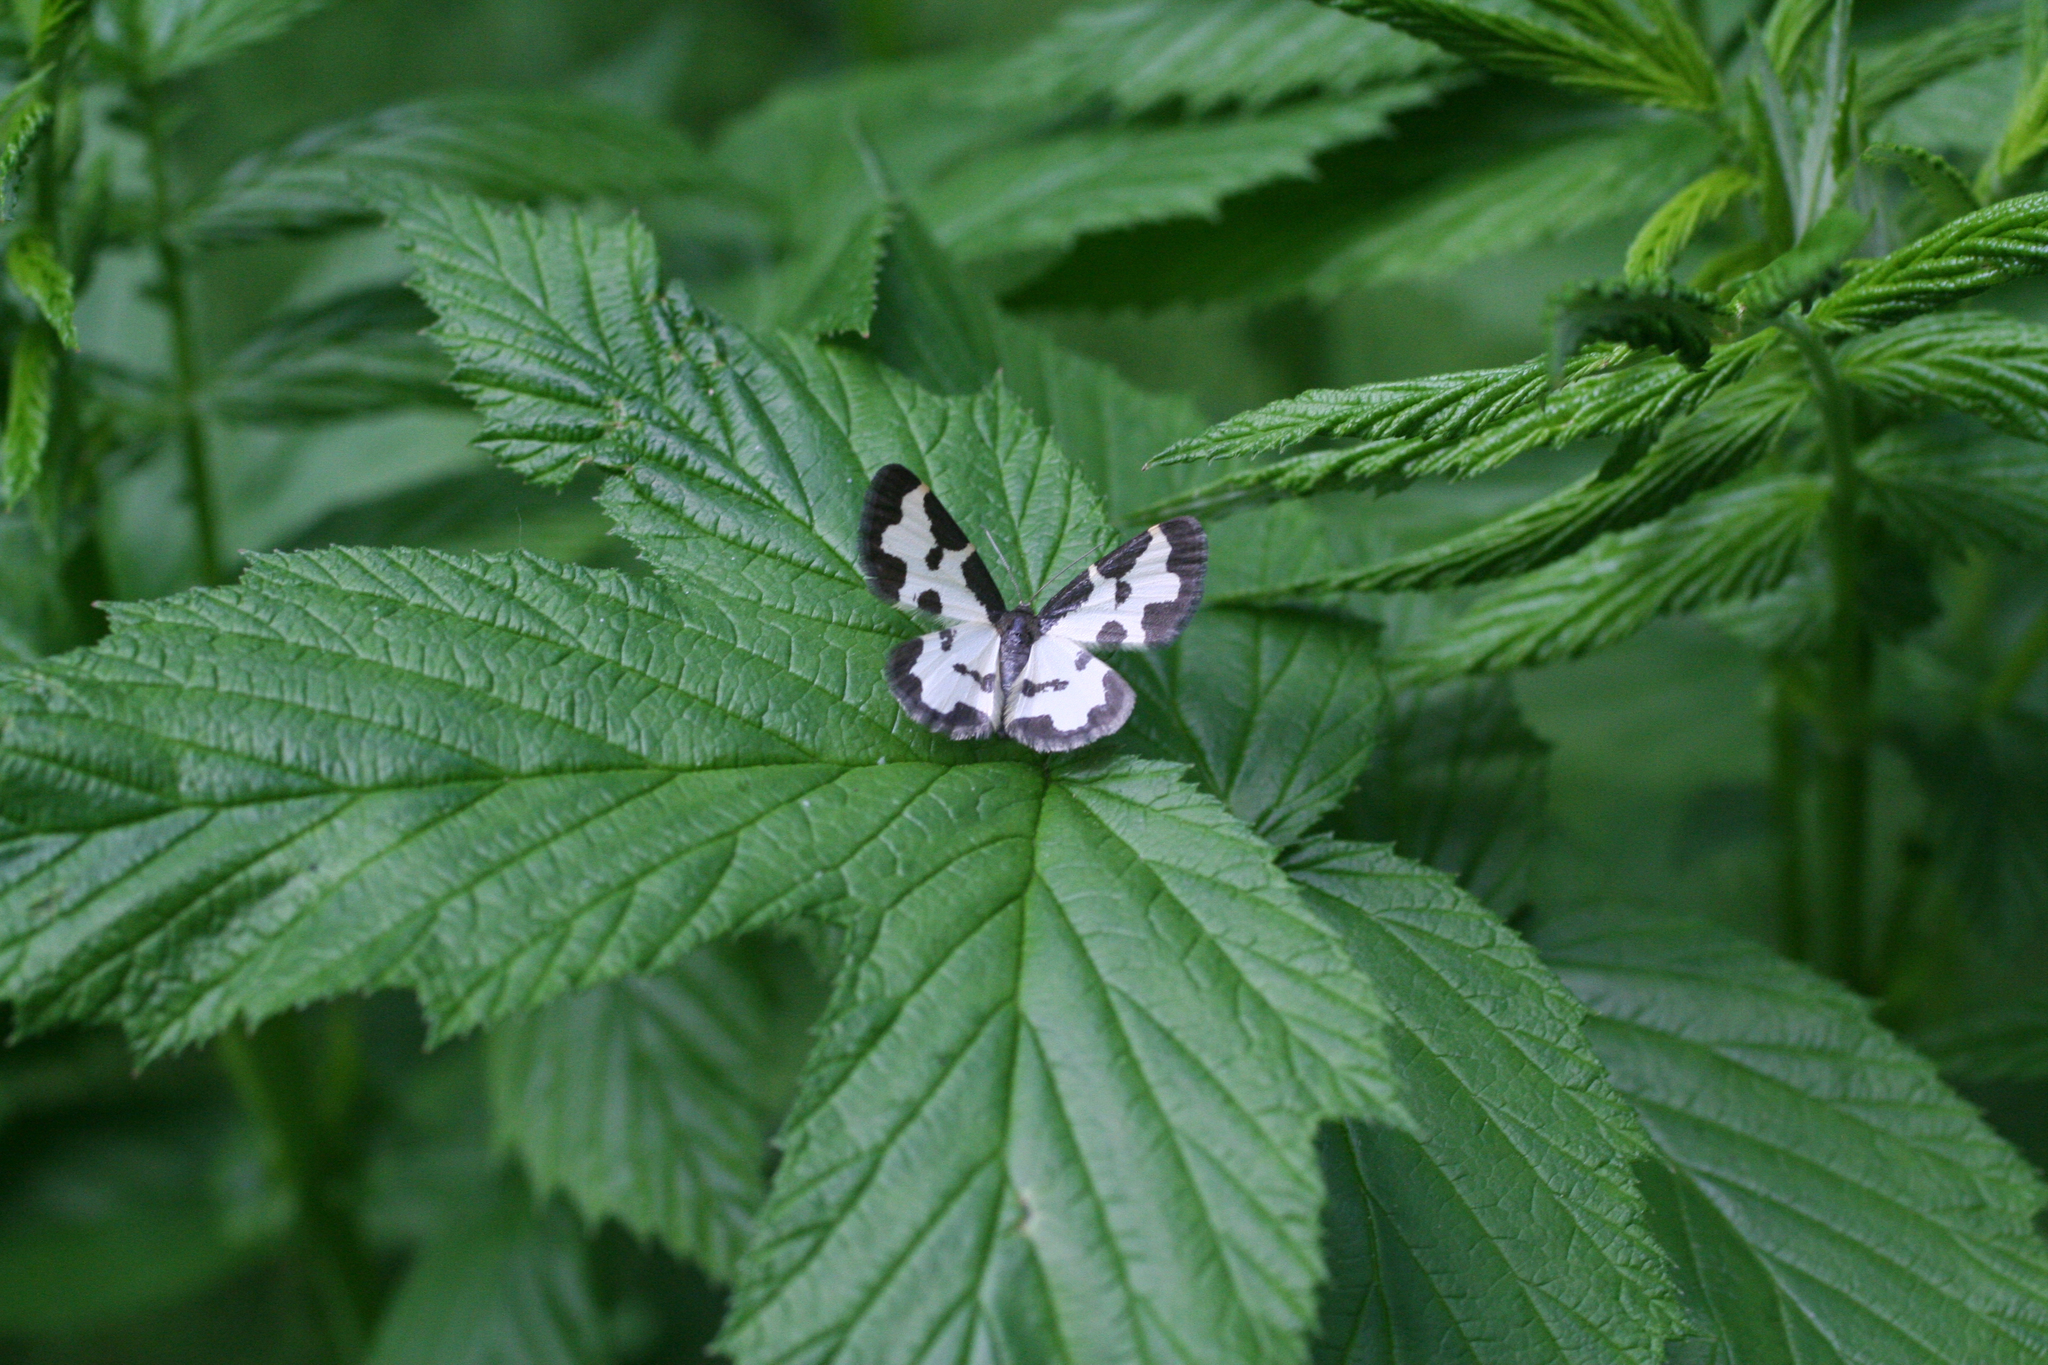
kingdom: Animalia
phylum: Arthropoda
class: Insecta
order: Lepidoptera
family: Geometridae
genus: Lomaspilis
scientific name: Lomaspilis marginata
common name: Clouded border
